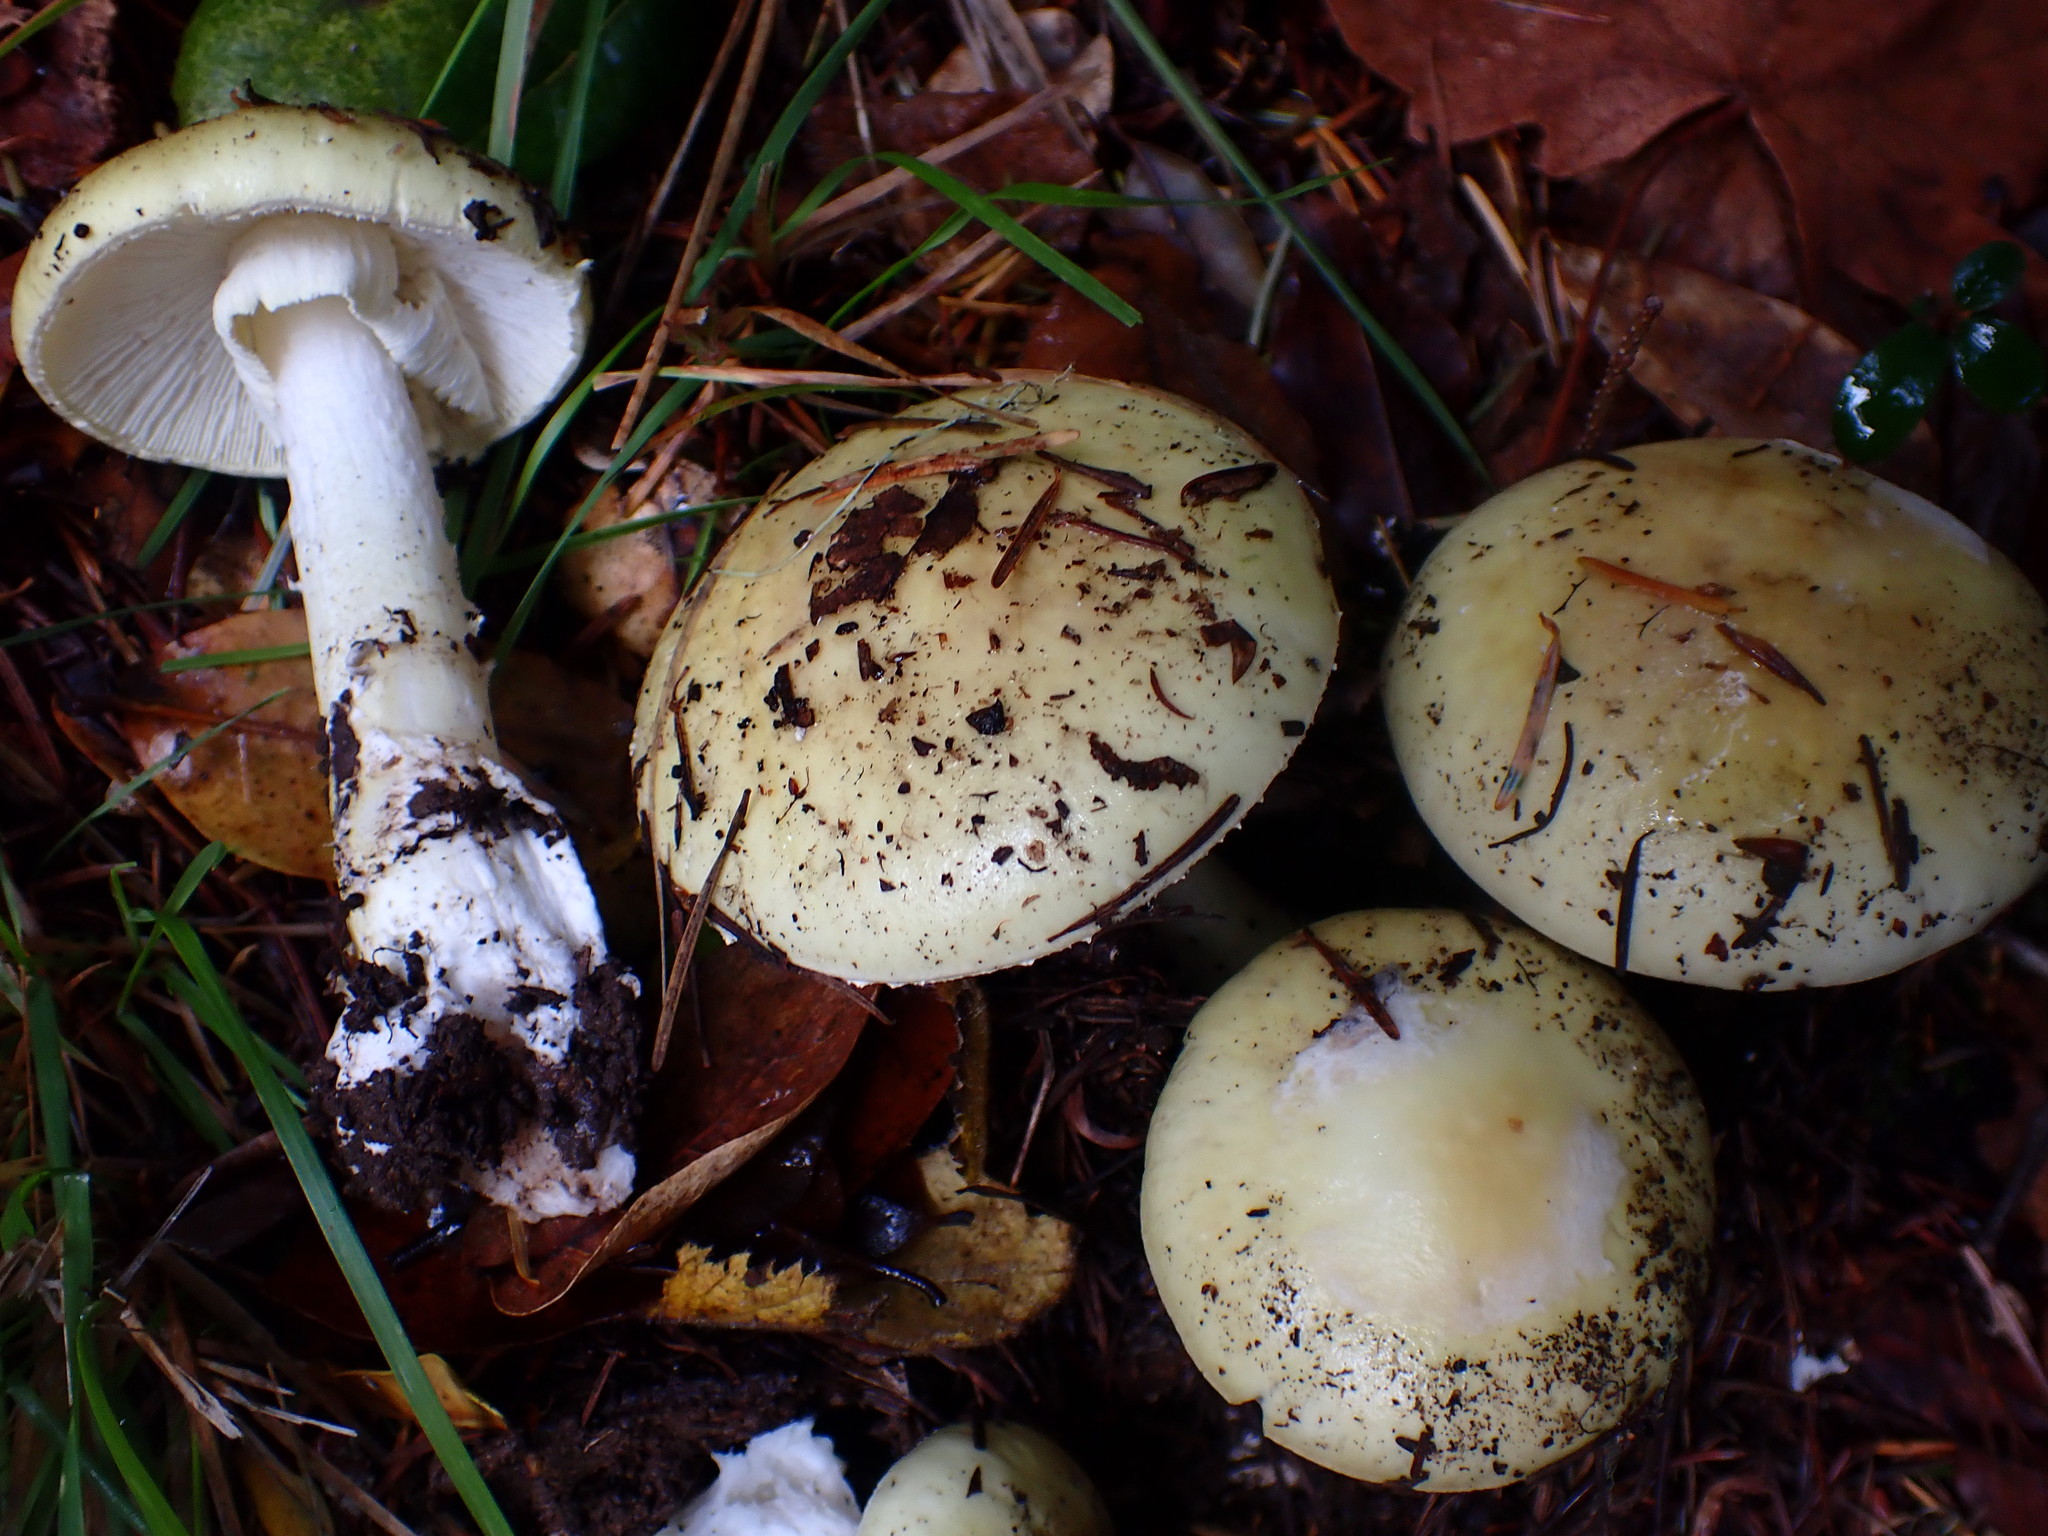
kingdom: Fungi
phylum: Basidiomycota
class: Agaricomycetes
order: Agaricales
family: Amanitaceae
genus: Amanita
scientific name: Amanita phalloides
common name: Death cap
